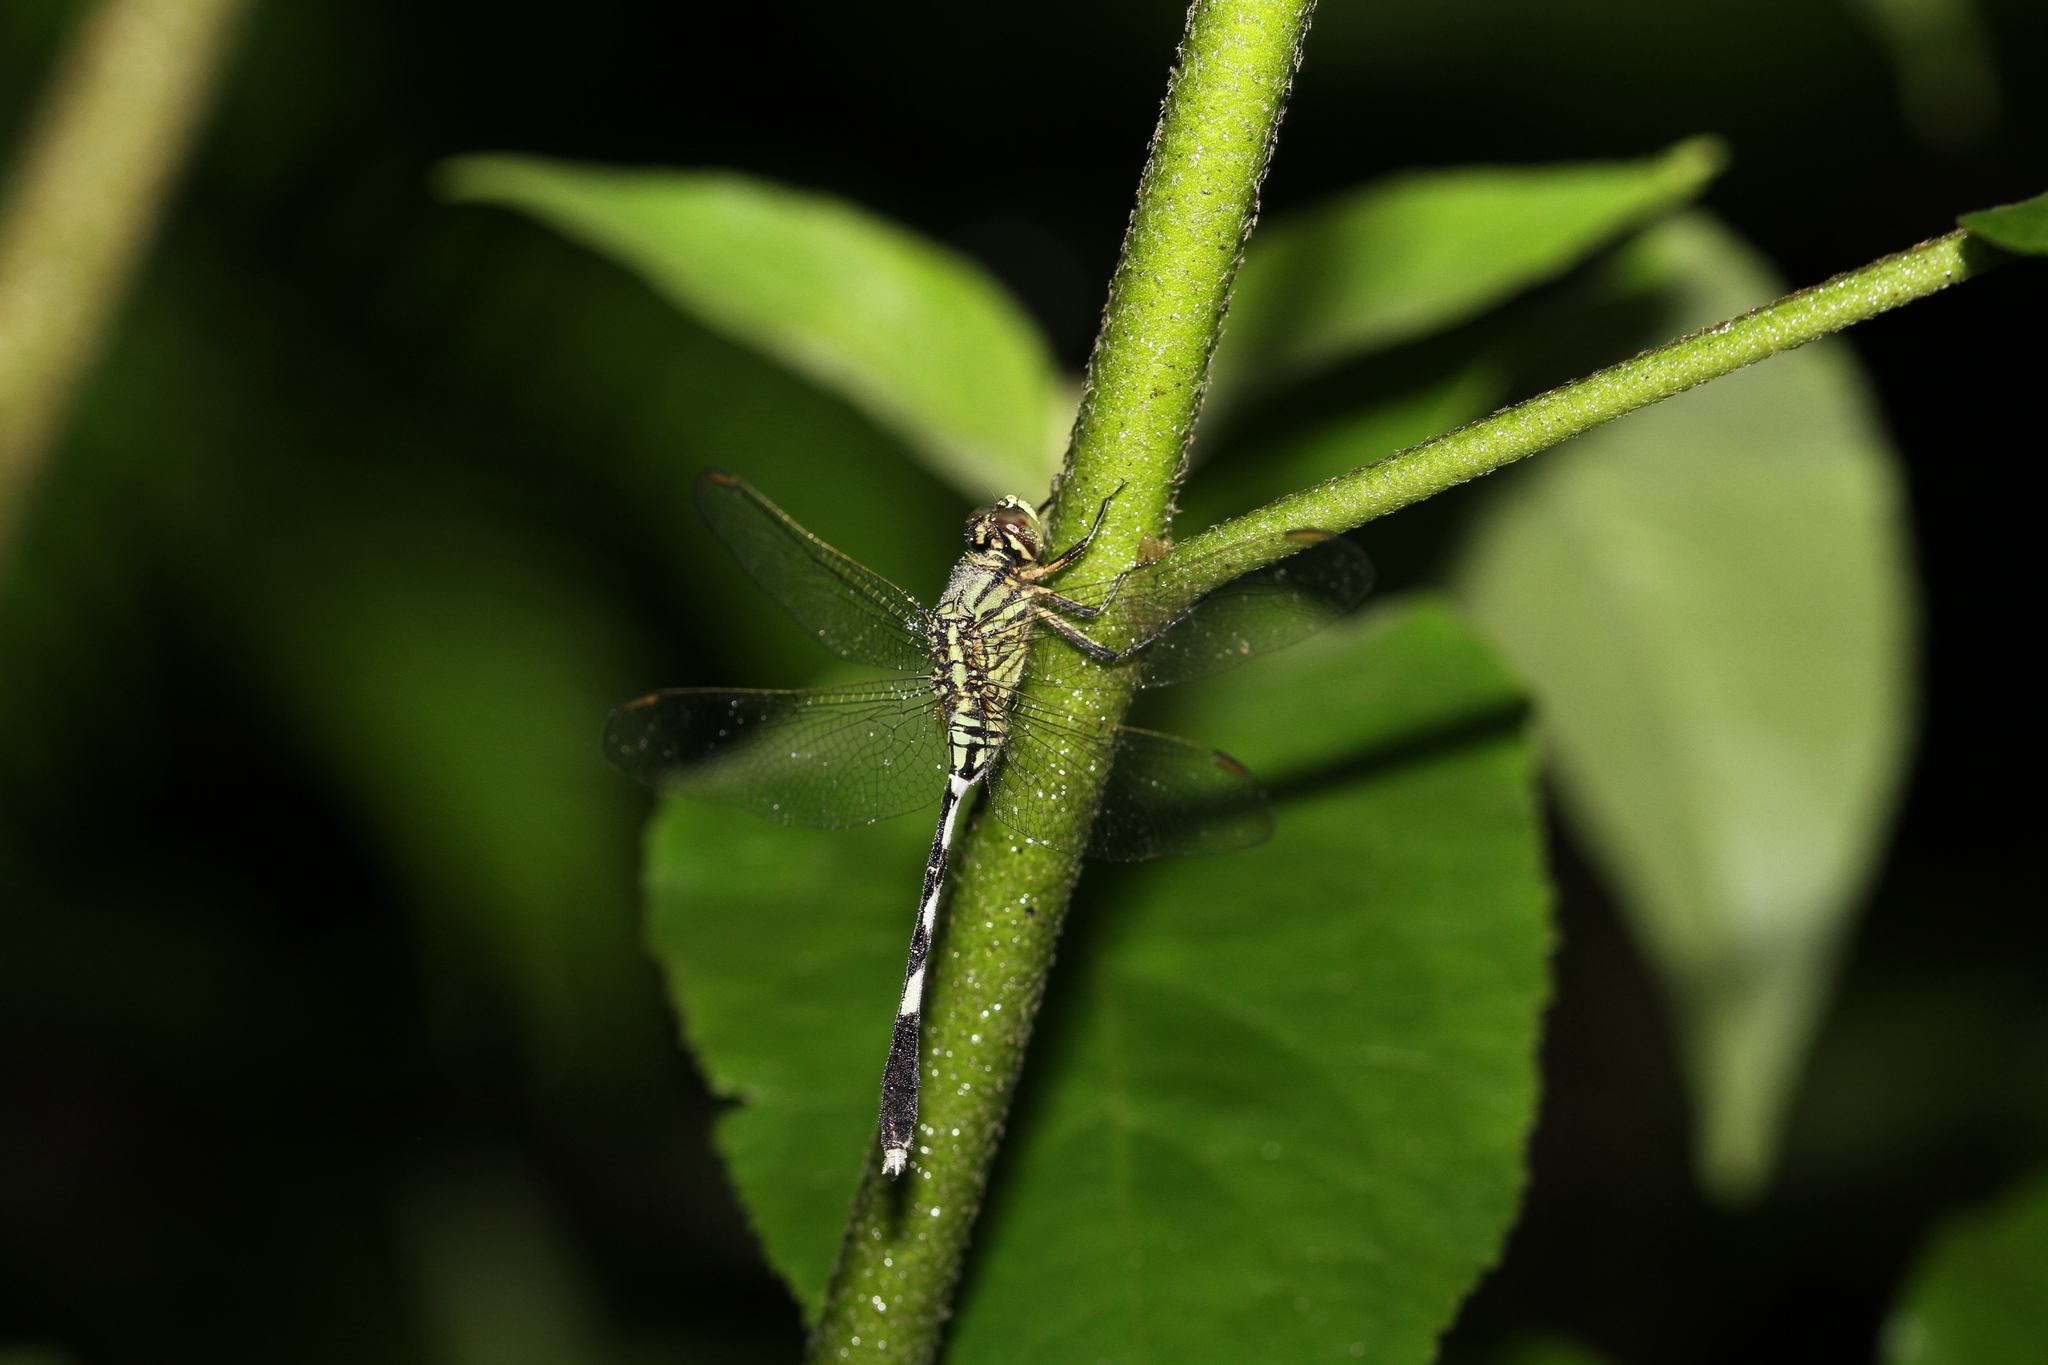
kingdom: Animalia
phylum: Arthropoda
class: Insecta
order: Odonata
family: Libellulidae
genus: Orthetrum
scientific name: Orthetrum sabina
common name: Slender skimmer
